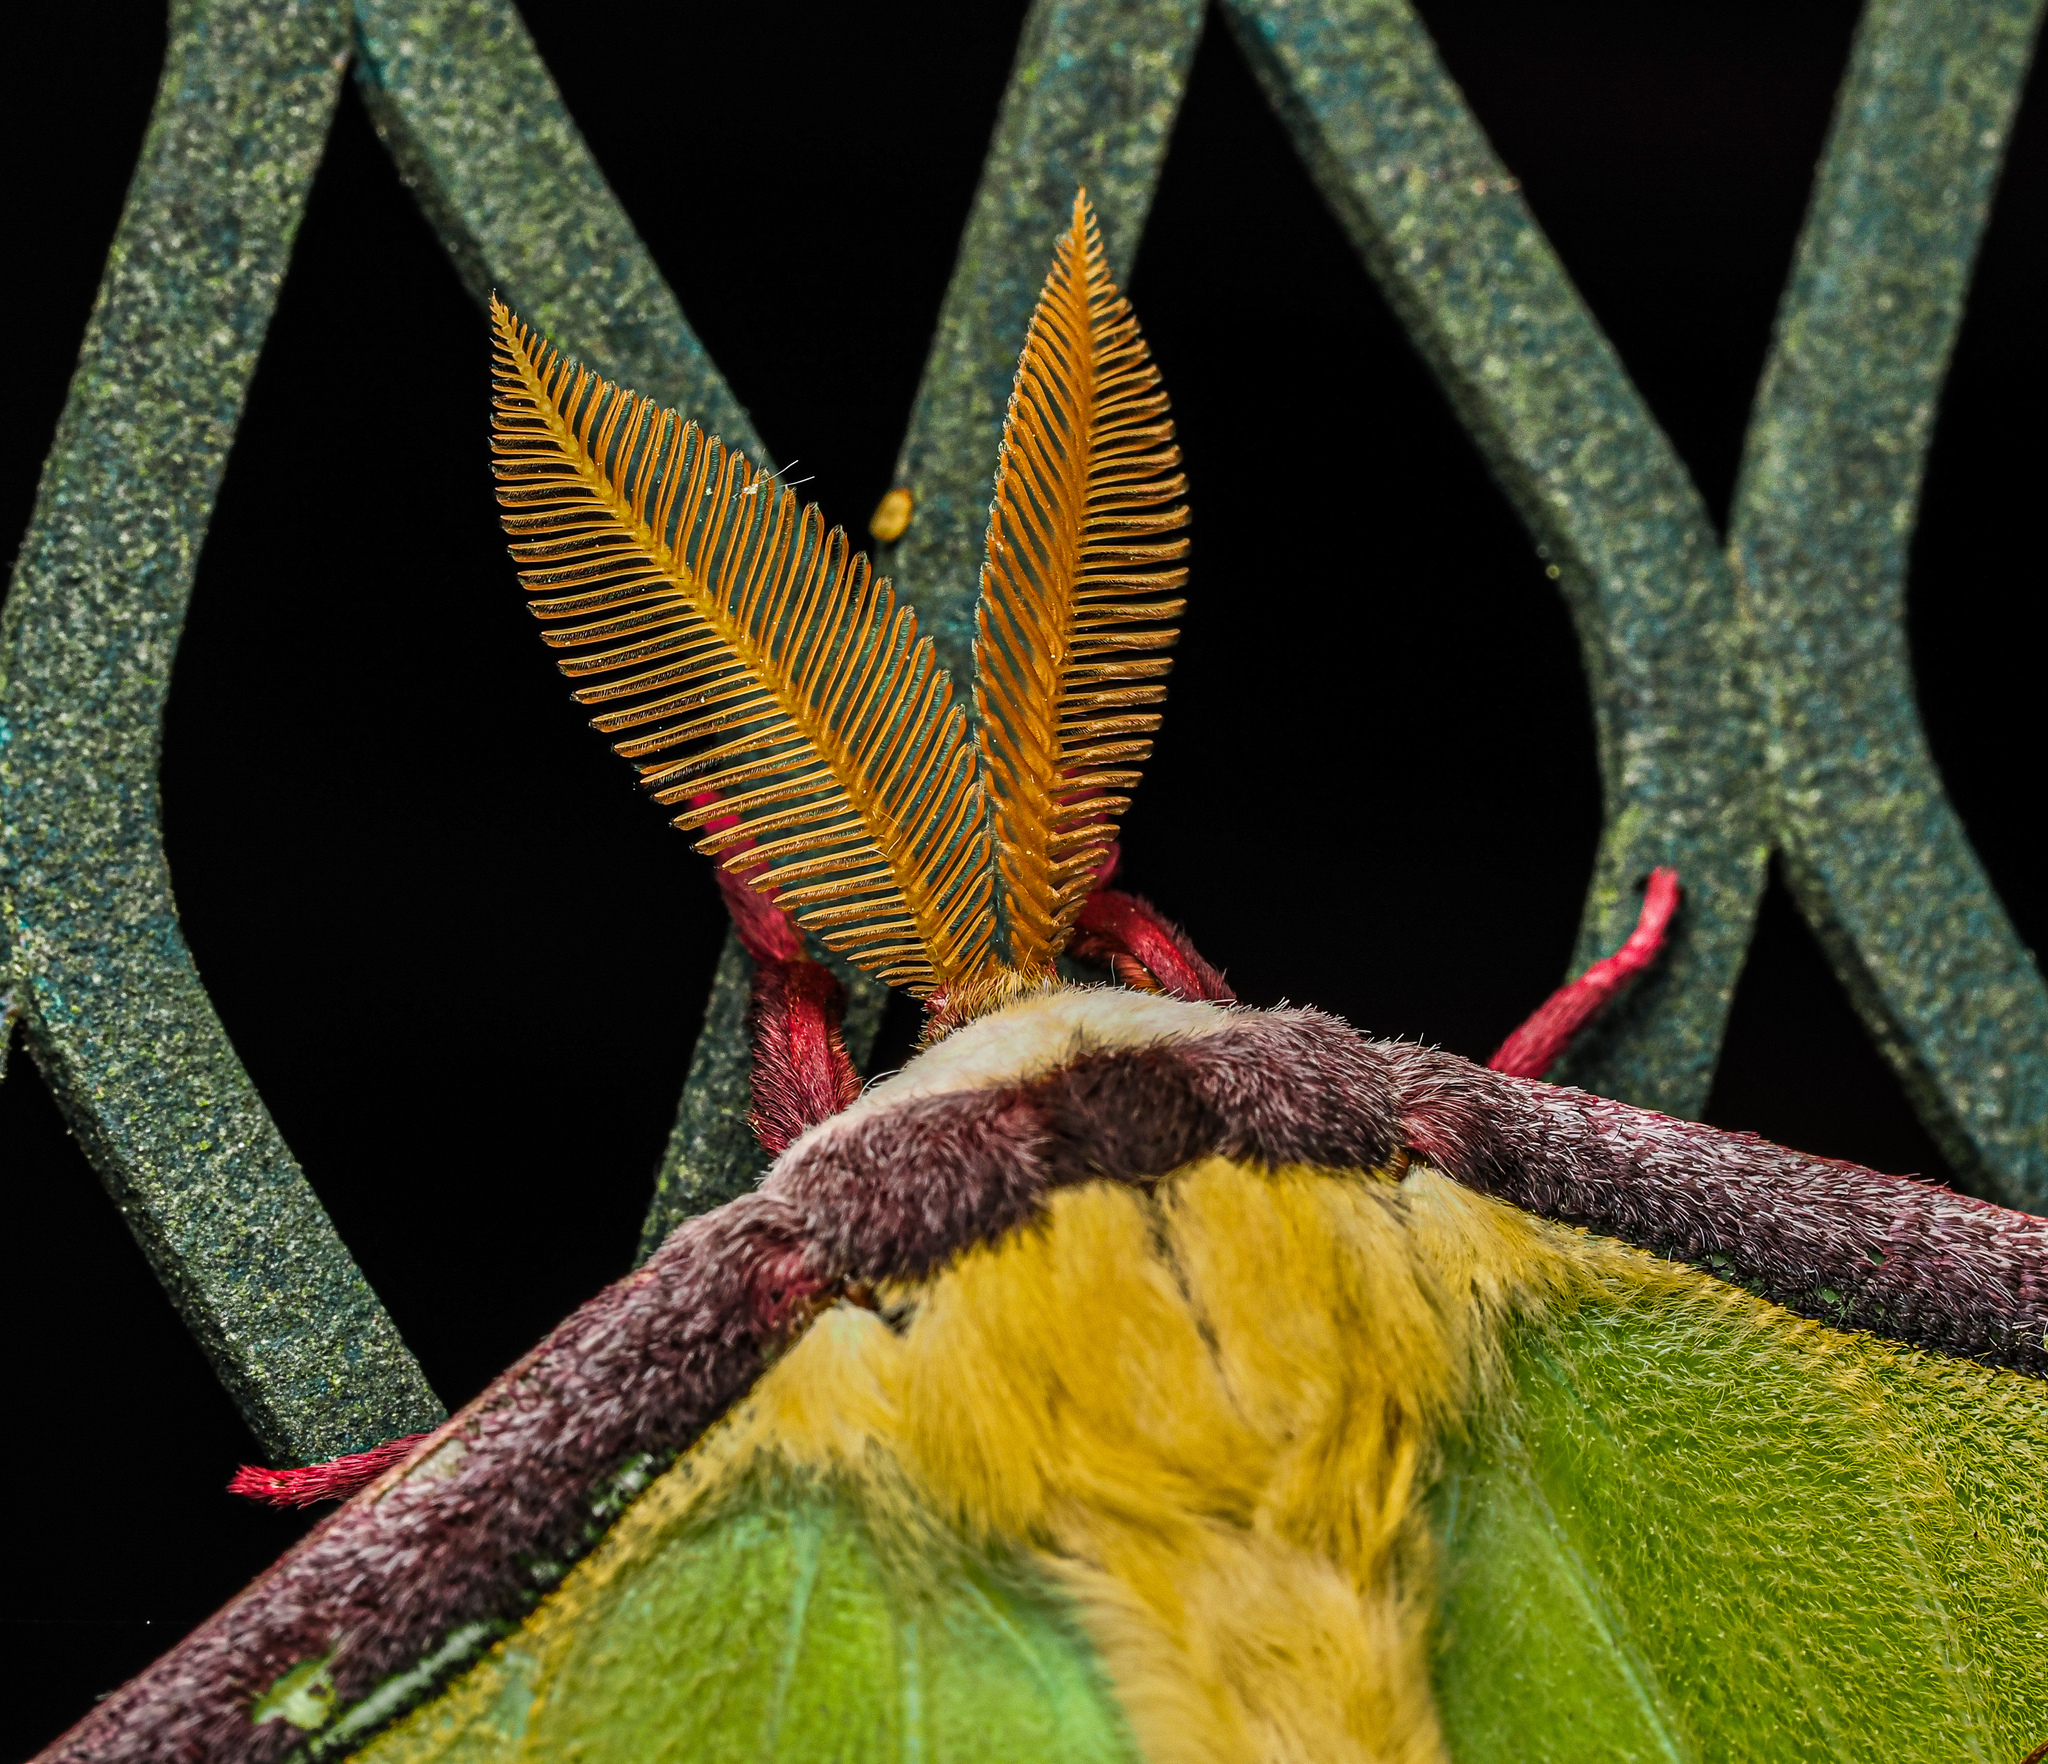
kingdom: Animalia
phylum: Arthropoda
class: Insecta
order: Lepidoptera
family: Saturniidae
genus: Actias
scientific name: Actias luna
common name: Luna moth
